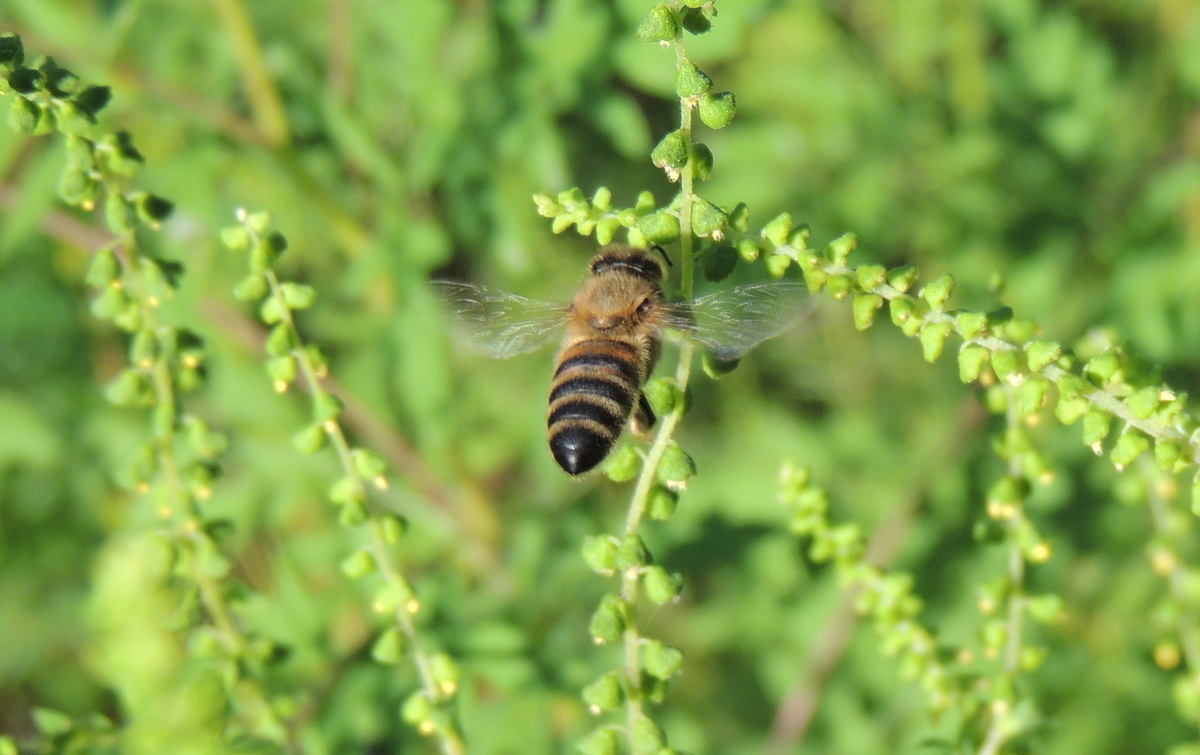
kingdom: Animalia
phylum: Arthropoda
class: Insecta
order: Hymenoptera
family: Apidae
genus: Apis
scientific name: Apis mellifera
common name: Honey bee
